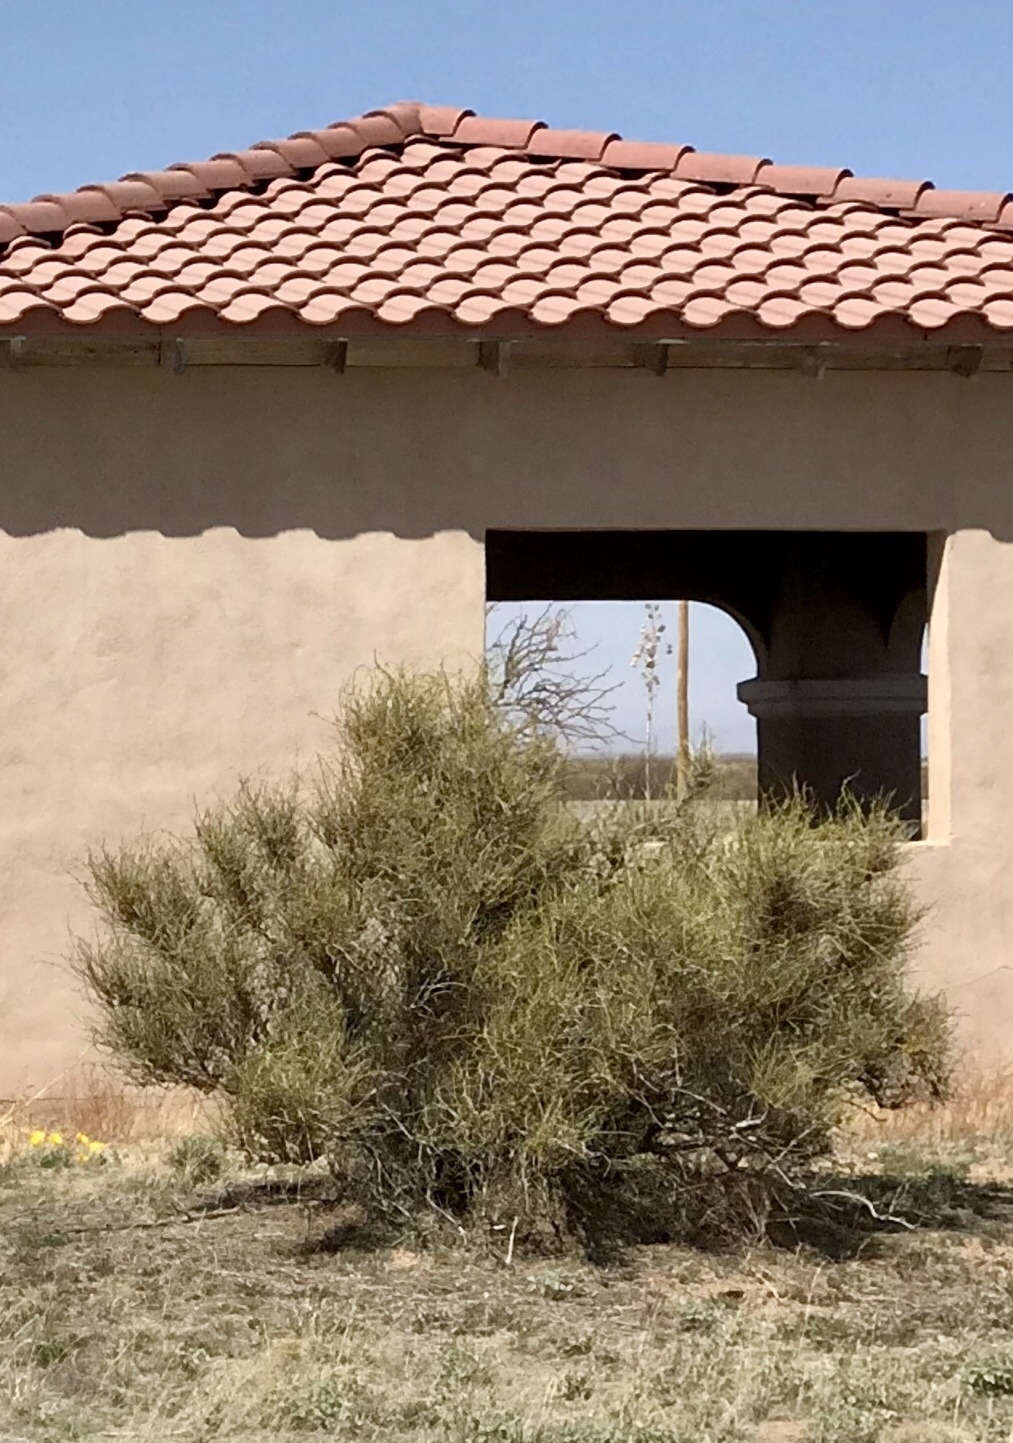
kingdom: Plantae
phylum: Tracheophyta
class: Gnetopsida
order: Ephedrales
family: Ephedraceae
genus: Ephedra
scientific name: Ephedra trifurca
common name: Mexican-tea
